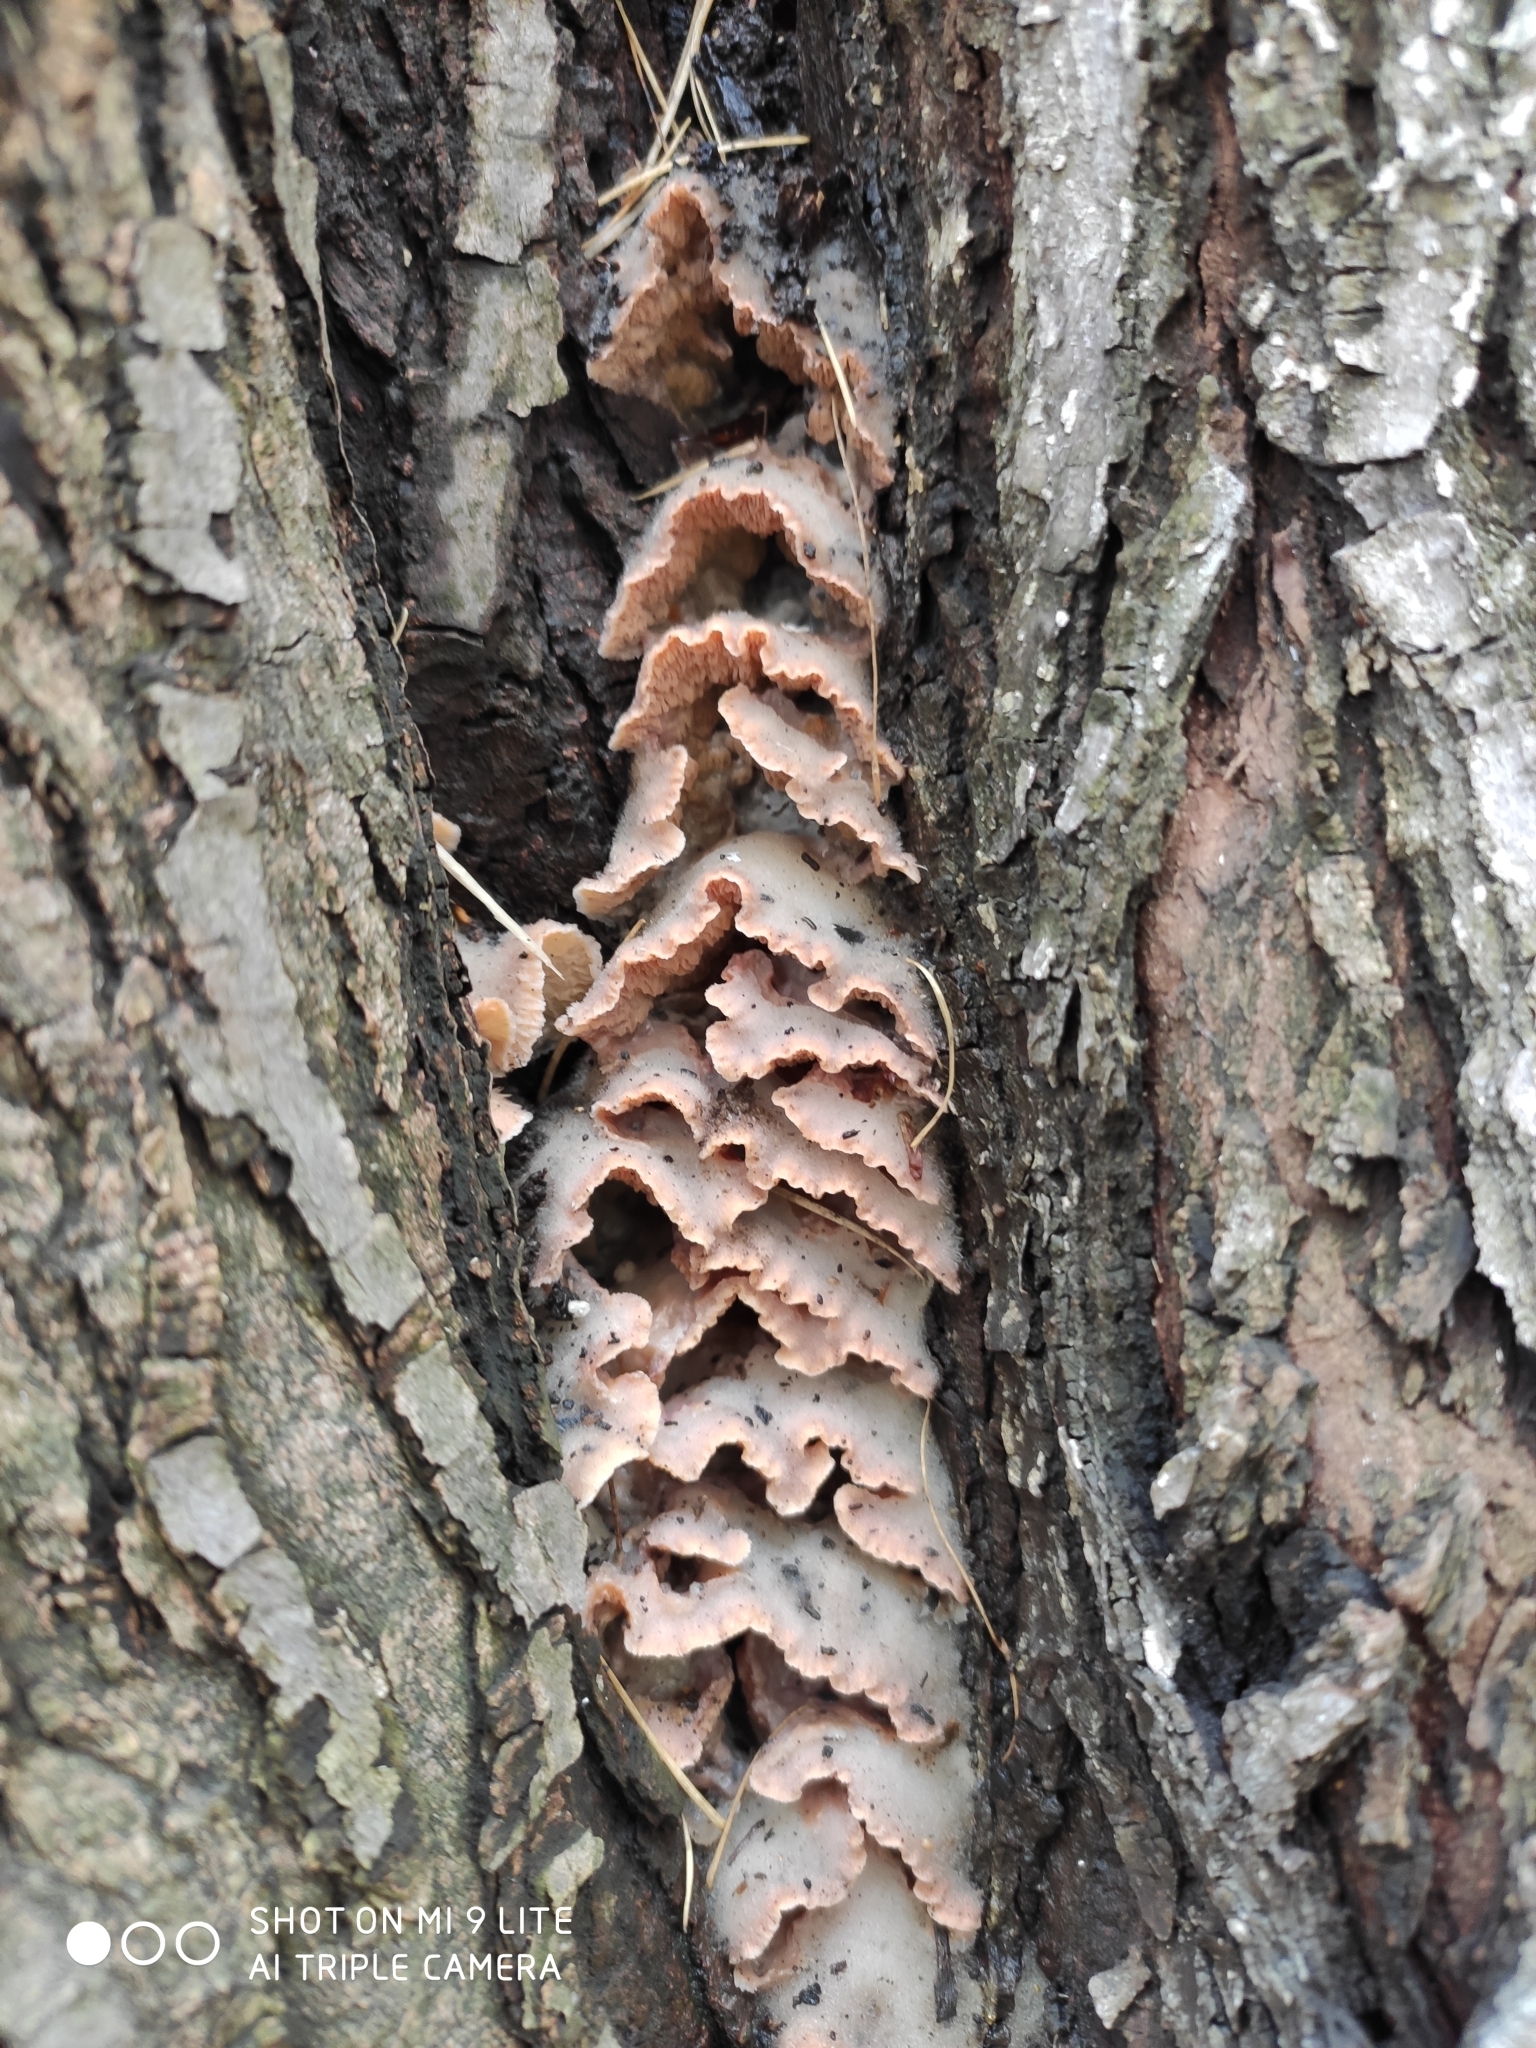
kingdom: Fungi
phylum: Basidiomycota
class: Agaricomycetes
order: Polyporales
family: Meruliaceae
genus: Phlebia
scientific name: Phlebia tremellosa
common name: Jelly rot
